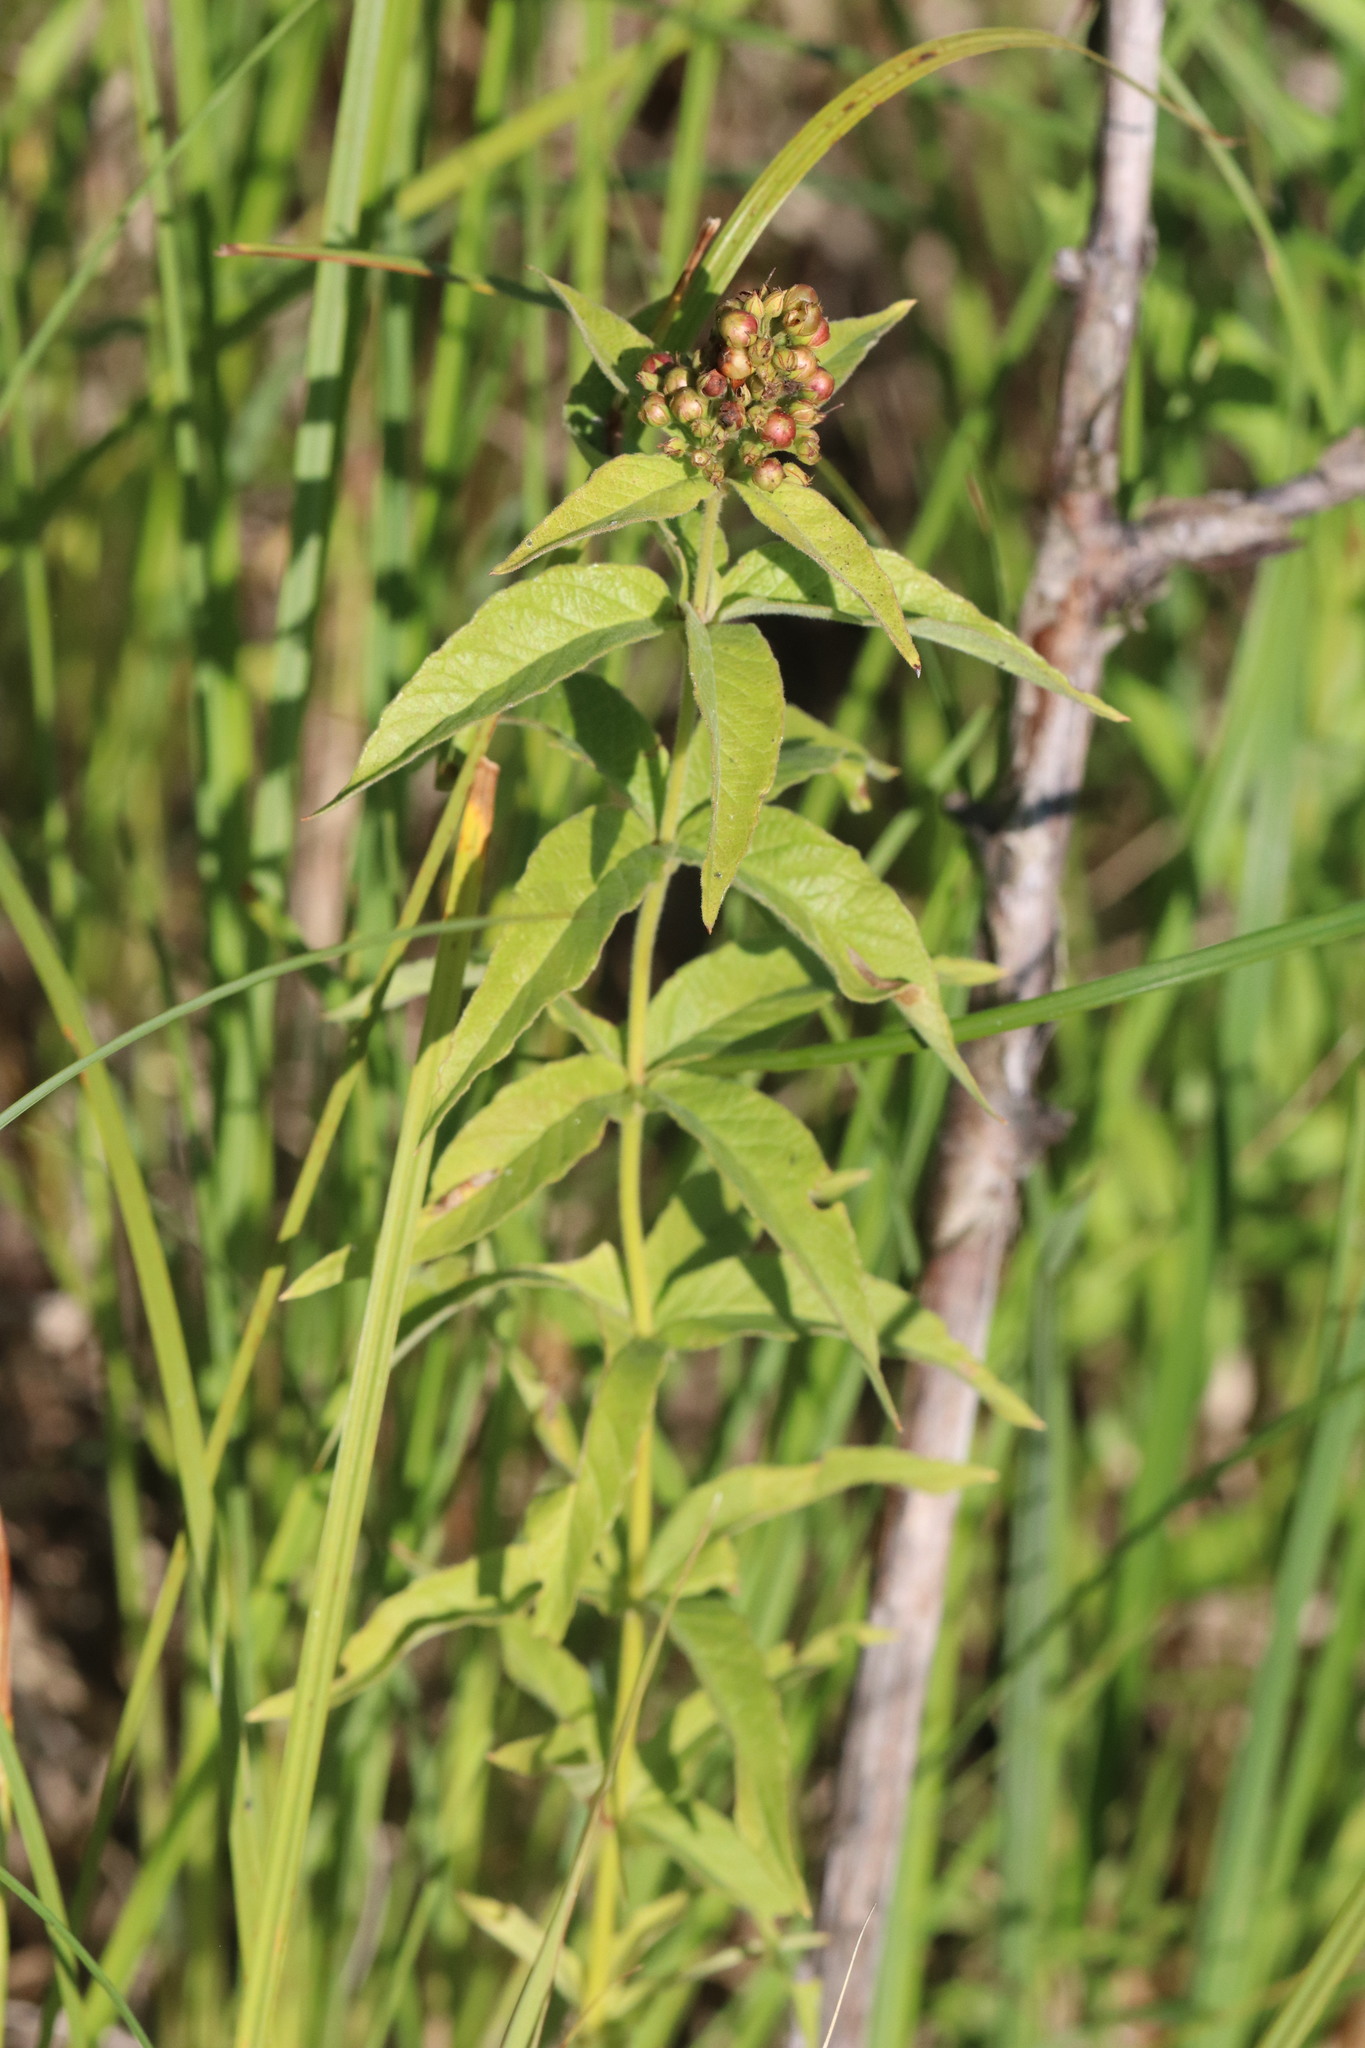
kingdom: Plantae
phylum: Tracheophyta
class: Magnoliopsida
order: Ericales
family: Primulaceae
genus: Lysimachia
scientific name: Lysimachia vulgaris
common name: Yellow loosestrife
